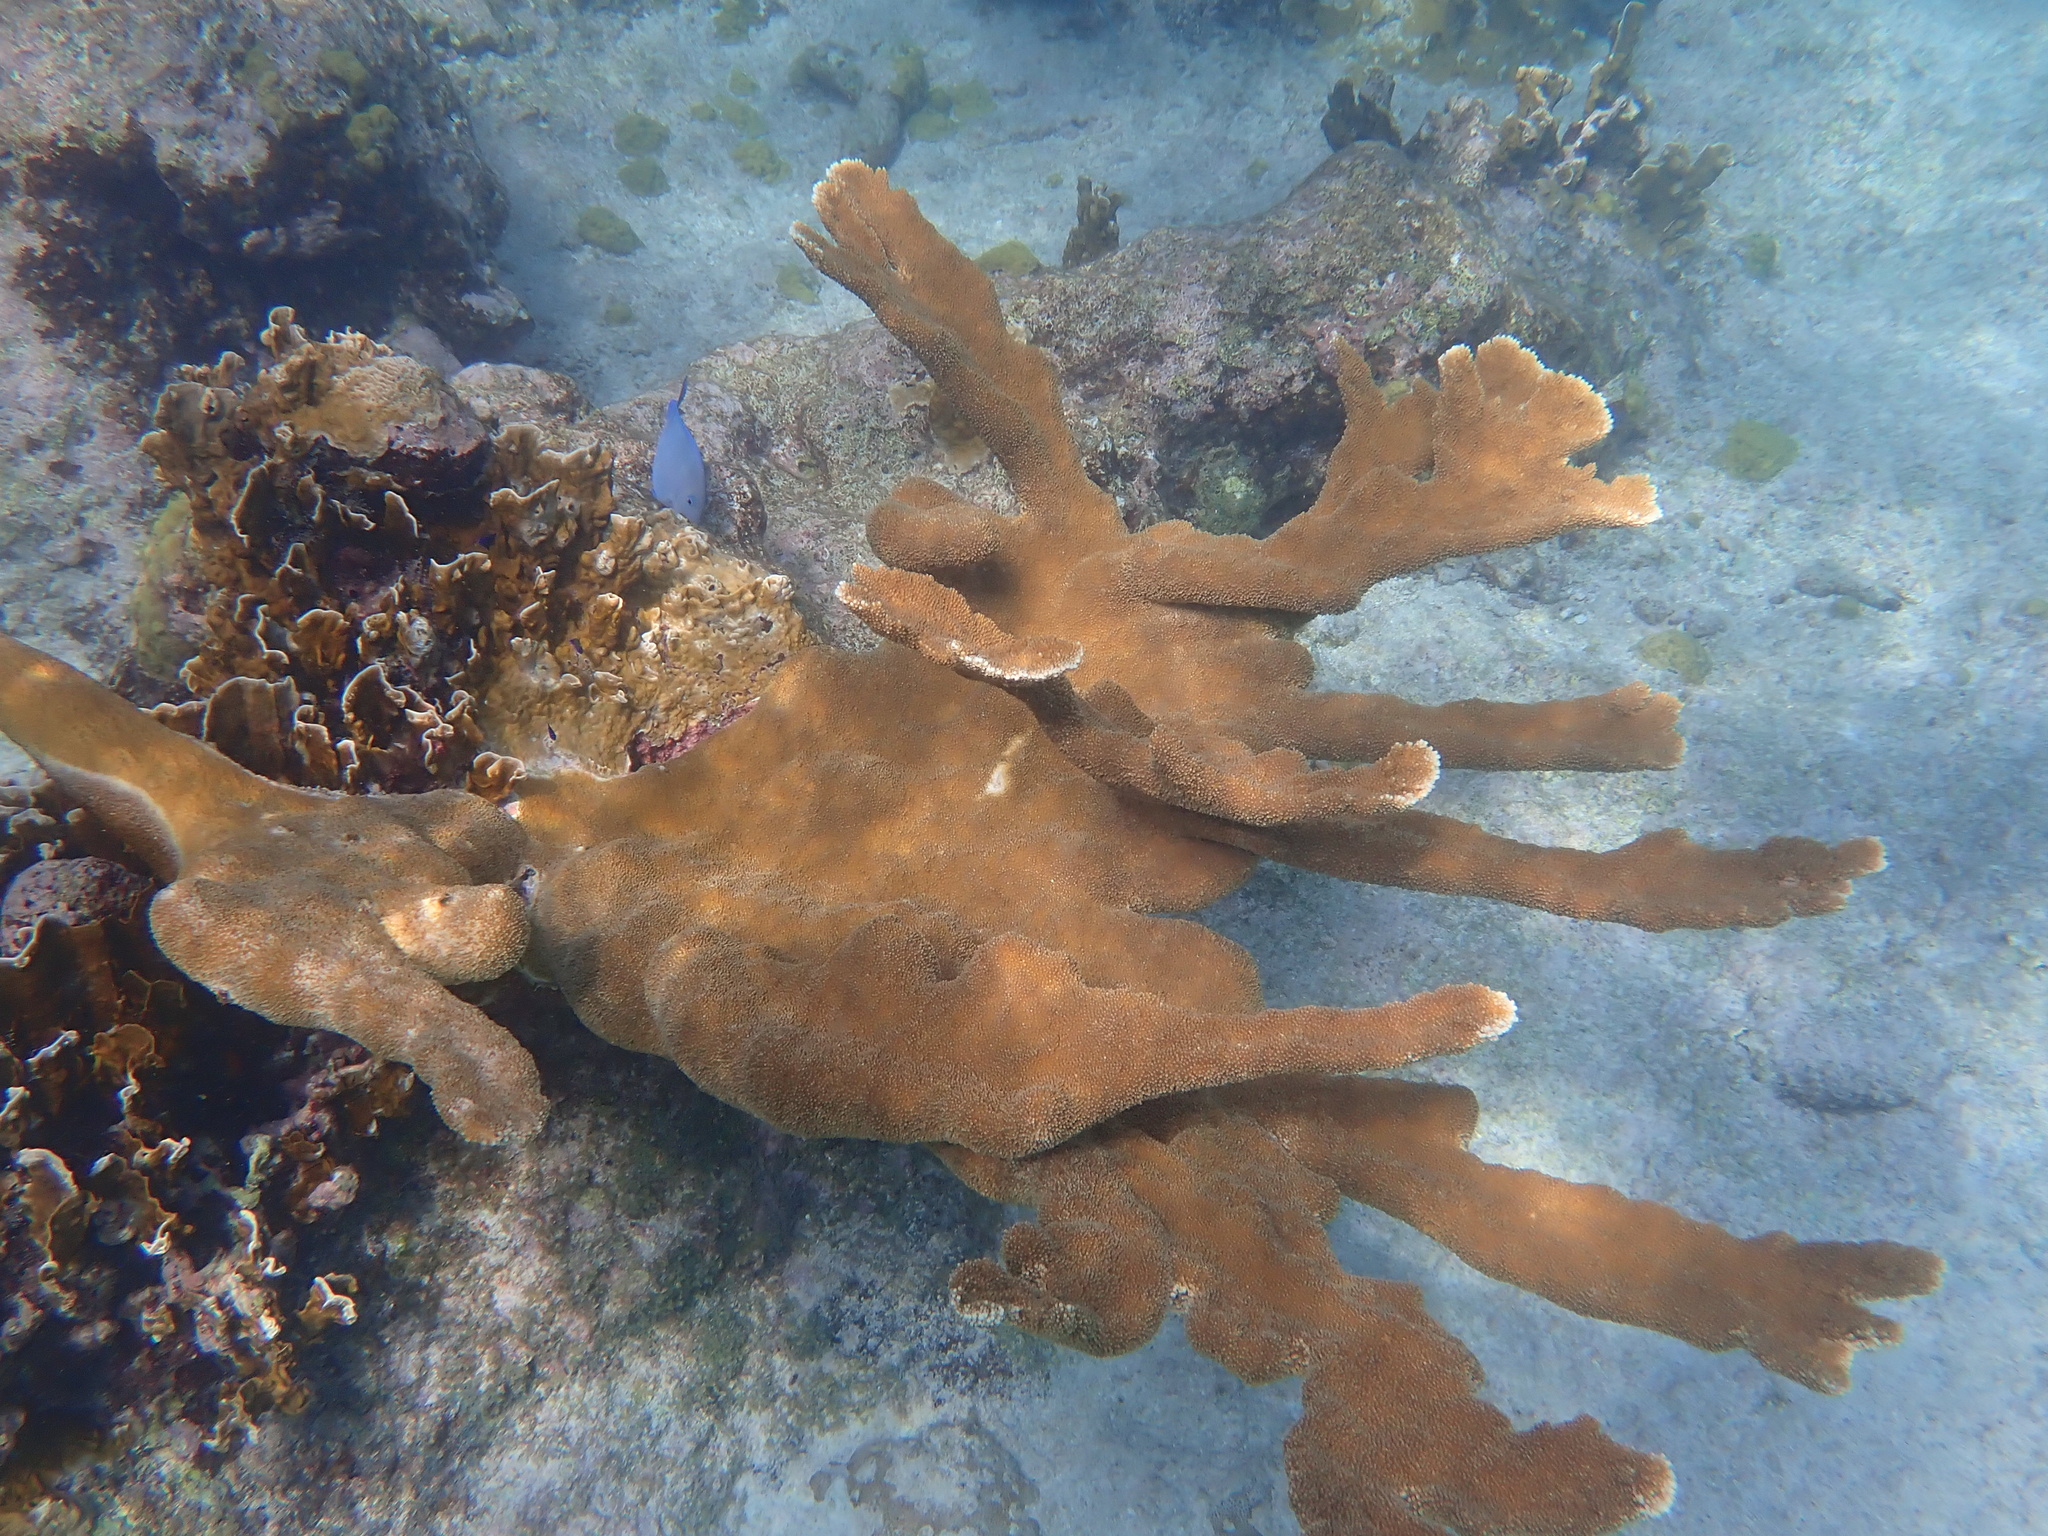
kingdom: Animalia
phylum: Cnidaria
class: Anthozoa
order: Scleractinia
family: Acroporidae
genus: Acropora
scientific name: Acropora palmata
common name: Elkhorn coral
